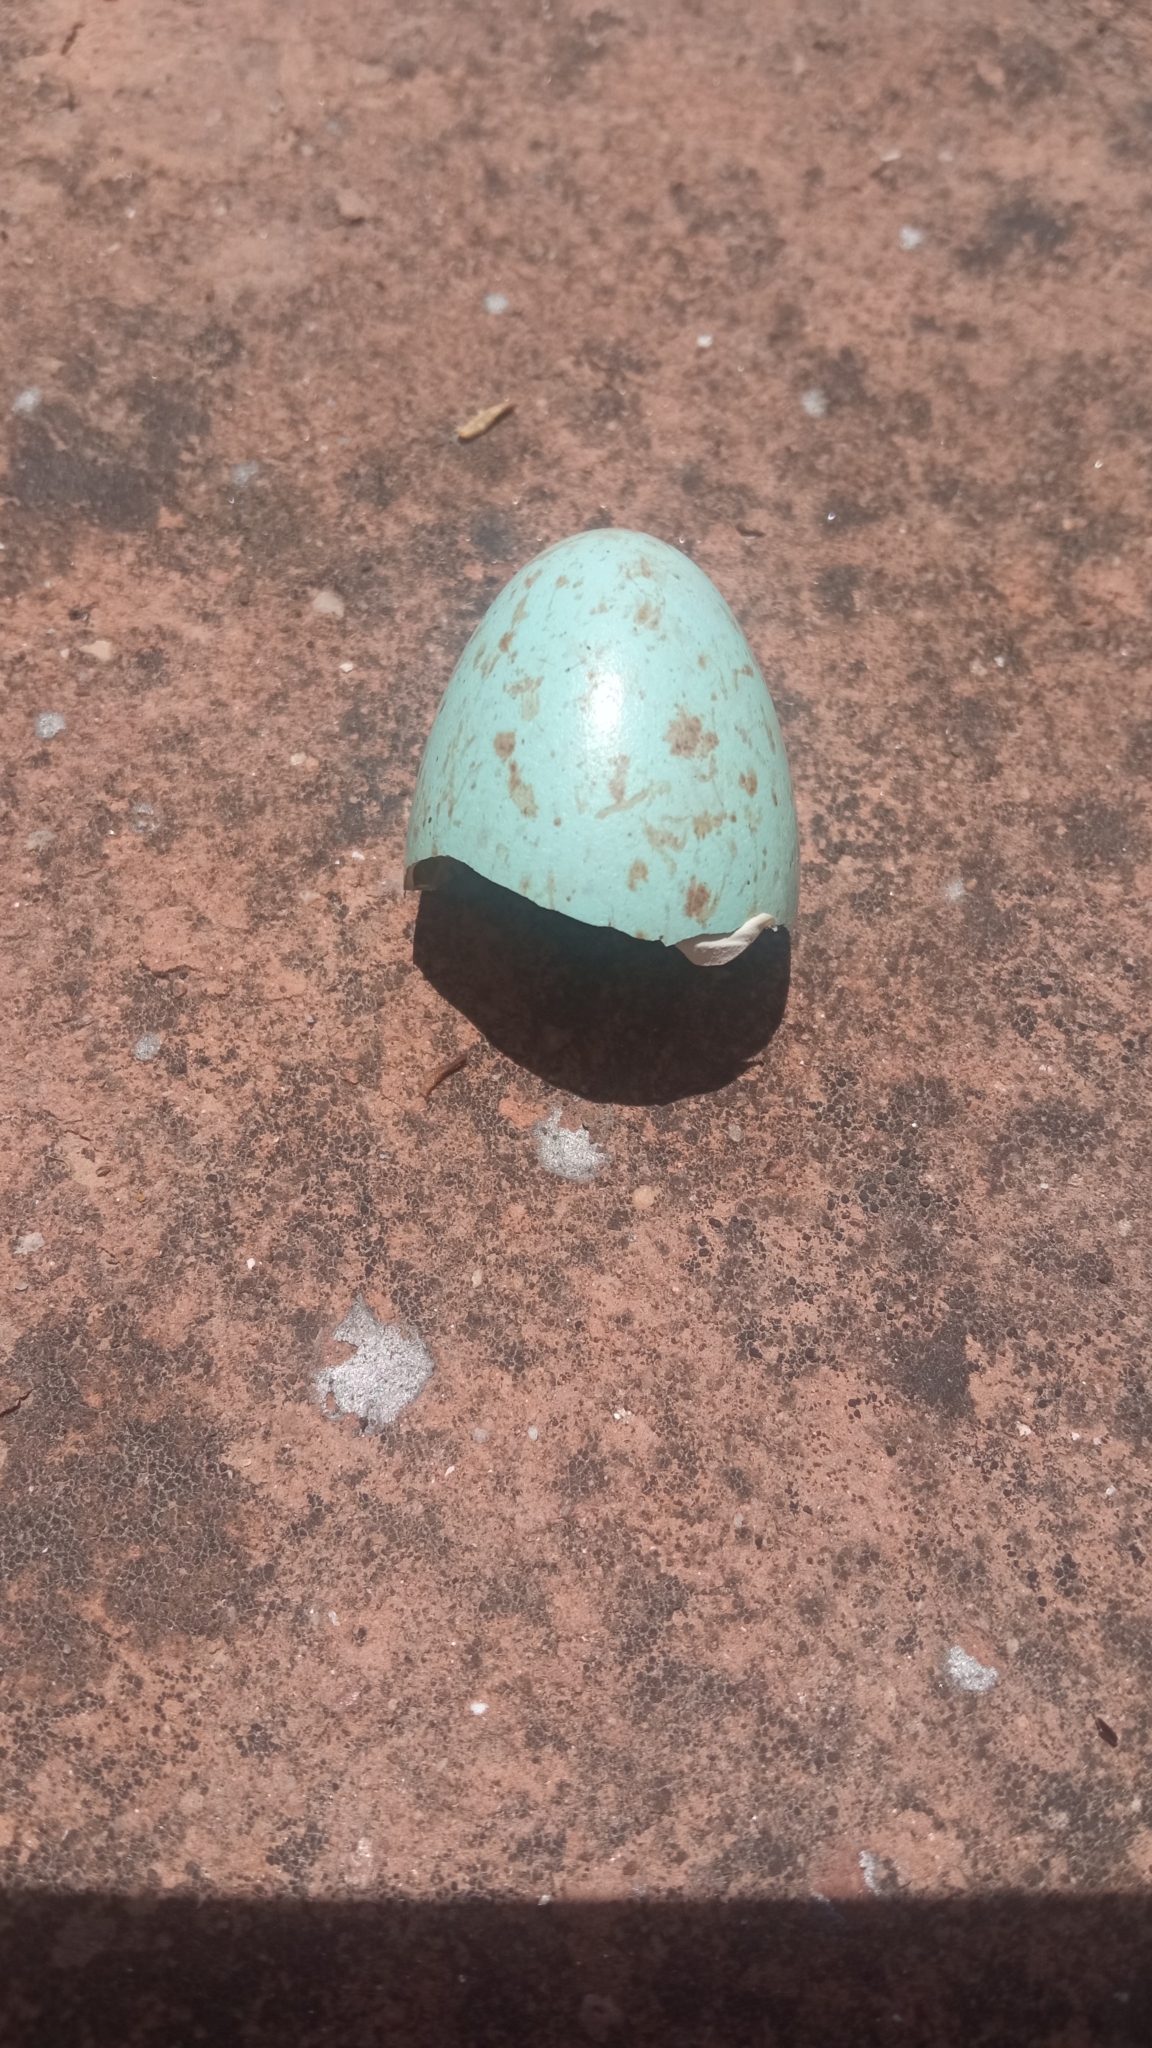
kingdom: Animalia
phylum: Chordata
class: Aves
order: Passeriformes
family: Turdidae
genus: Turdus
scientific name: Turdus merula
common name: Common blackbird
